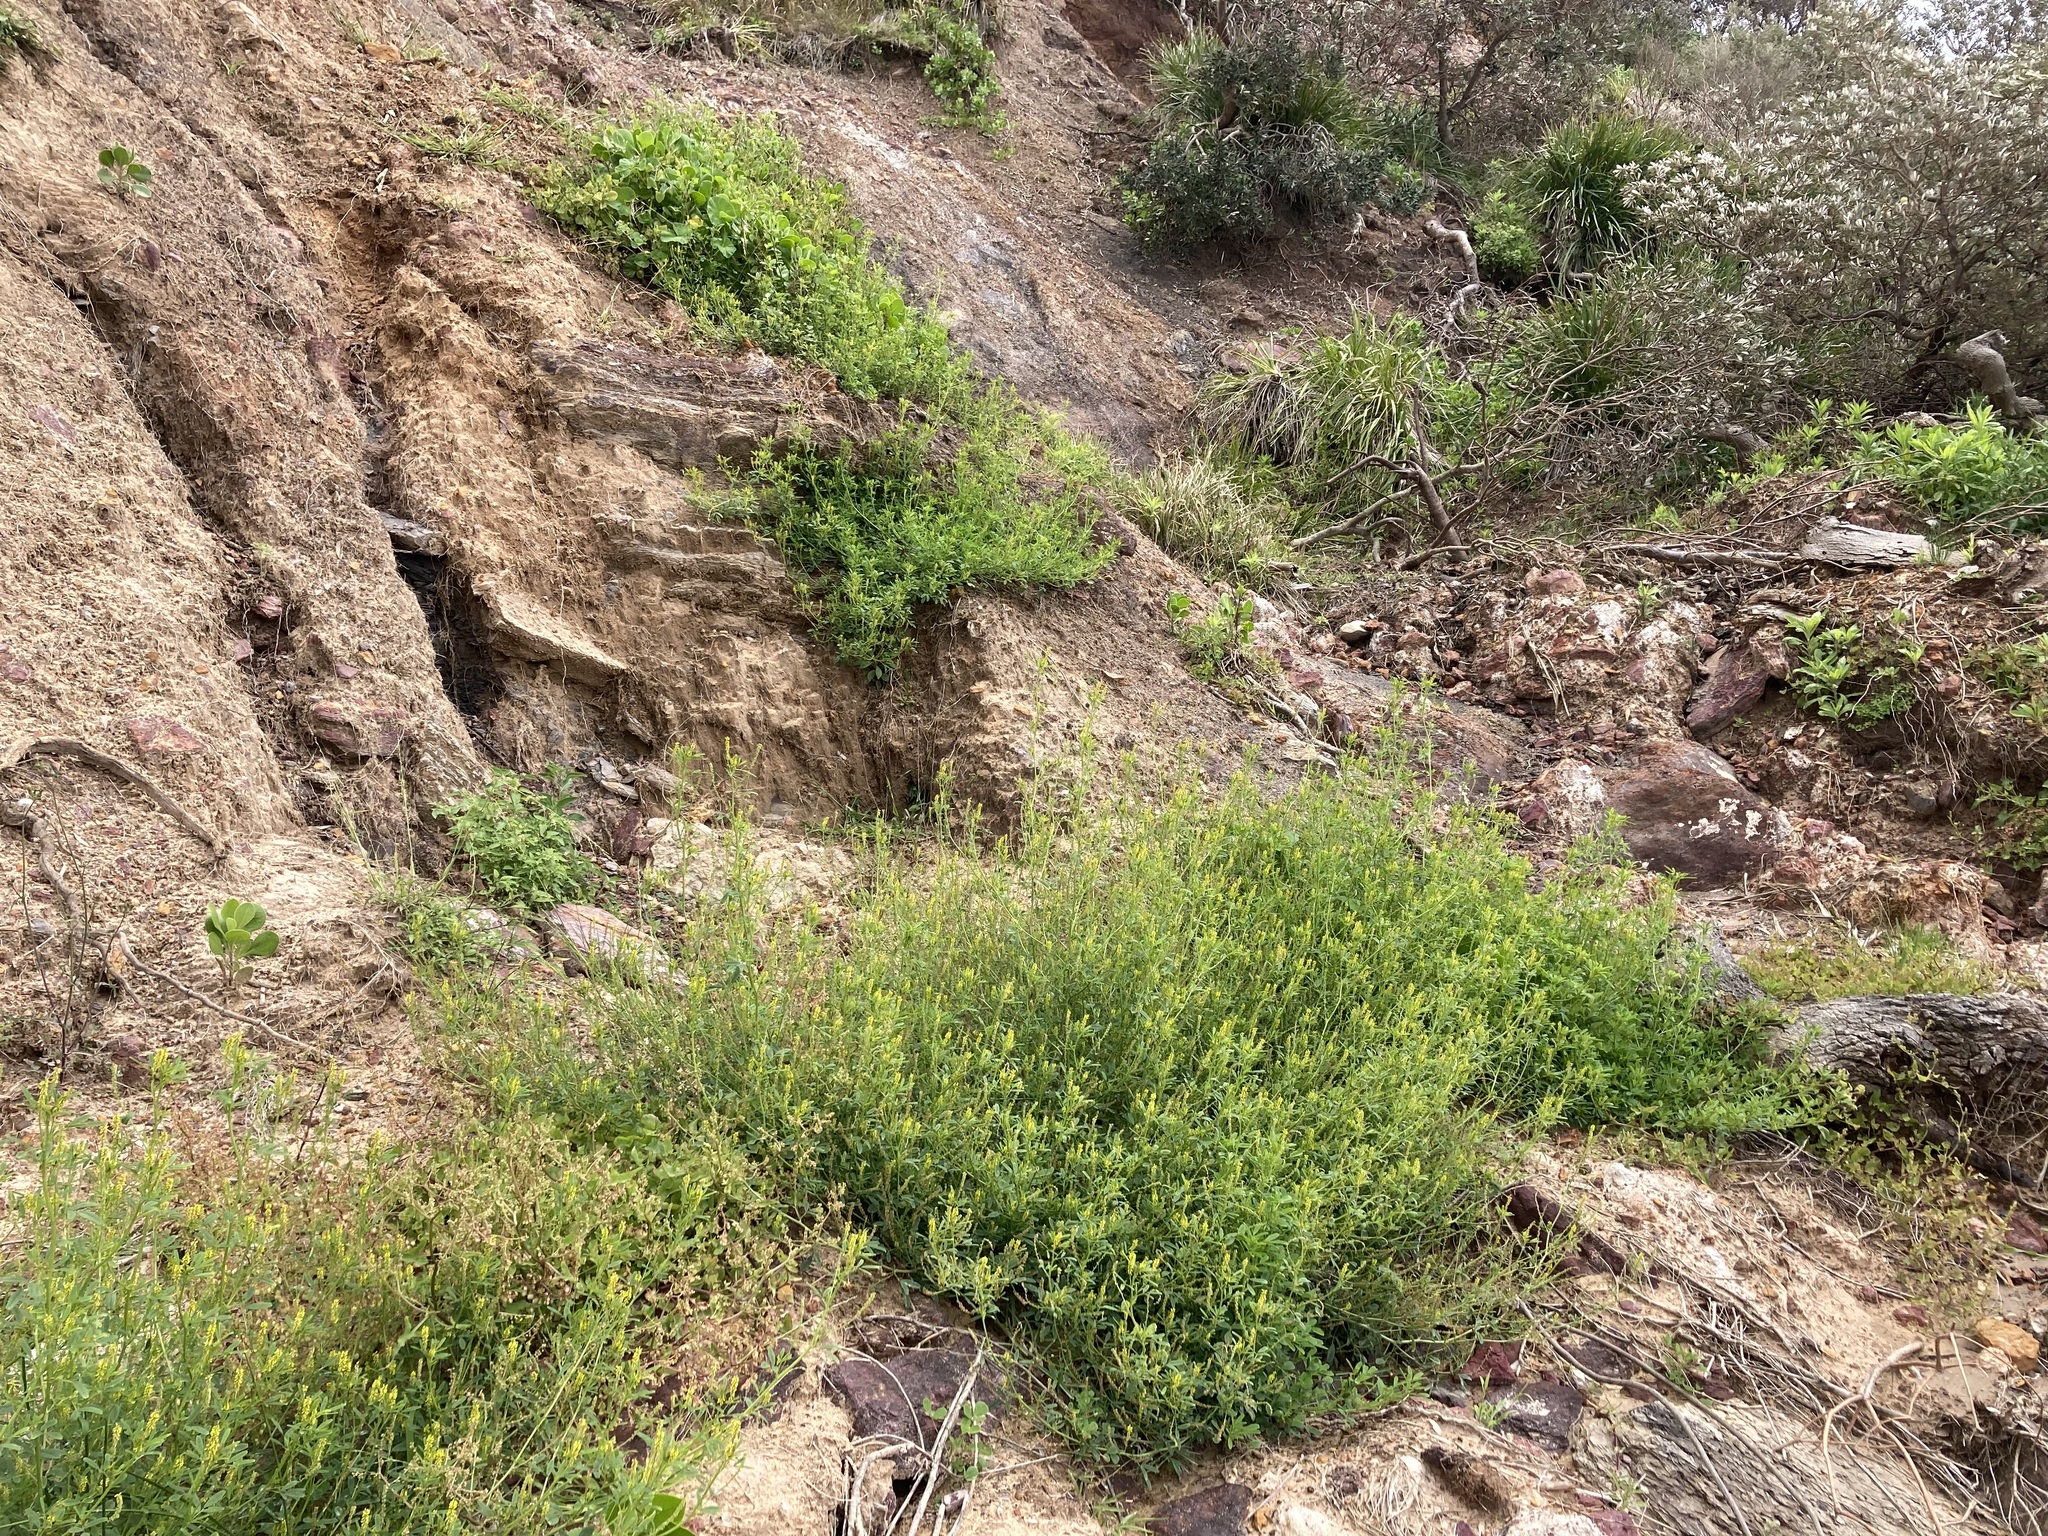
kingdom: Plantae
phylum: Tracheophyta
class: Magnoliopsida
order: Fabales
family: Fabaceae
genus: Melilotus
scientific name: Melilotus indicus
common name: Small melilot
